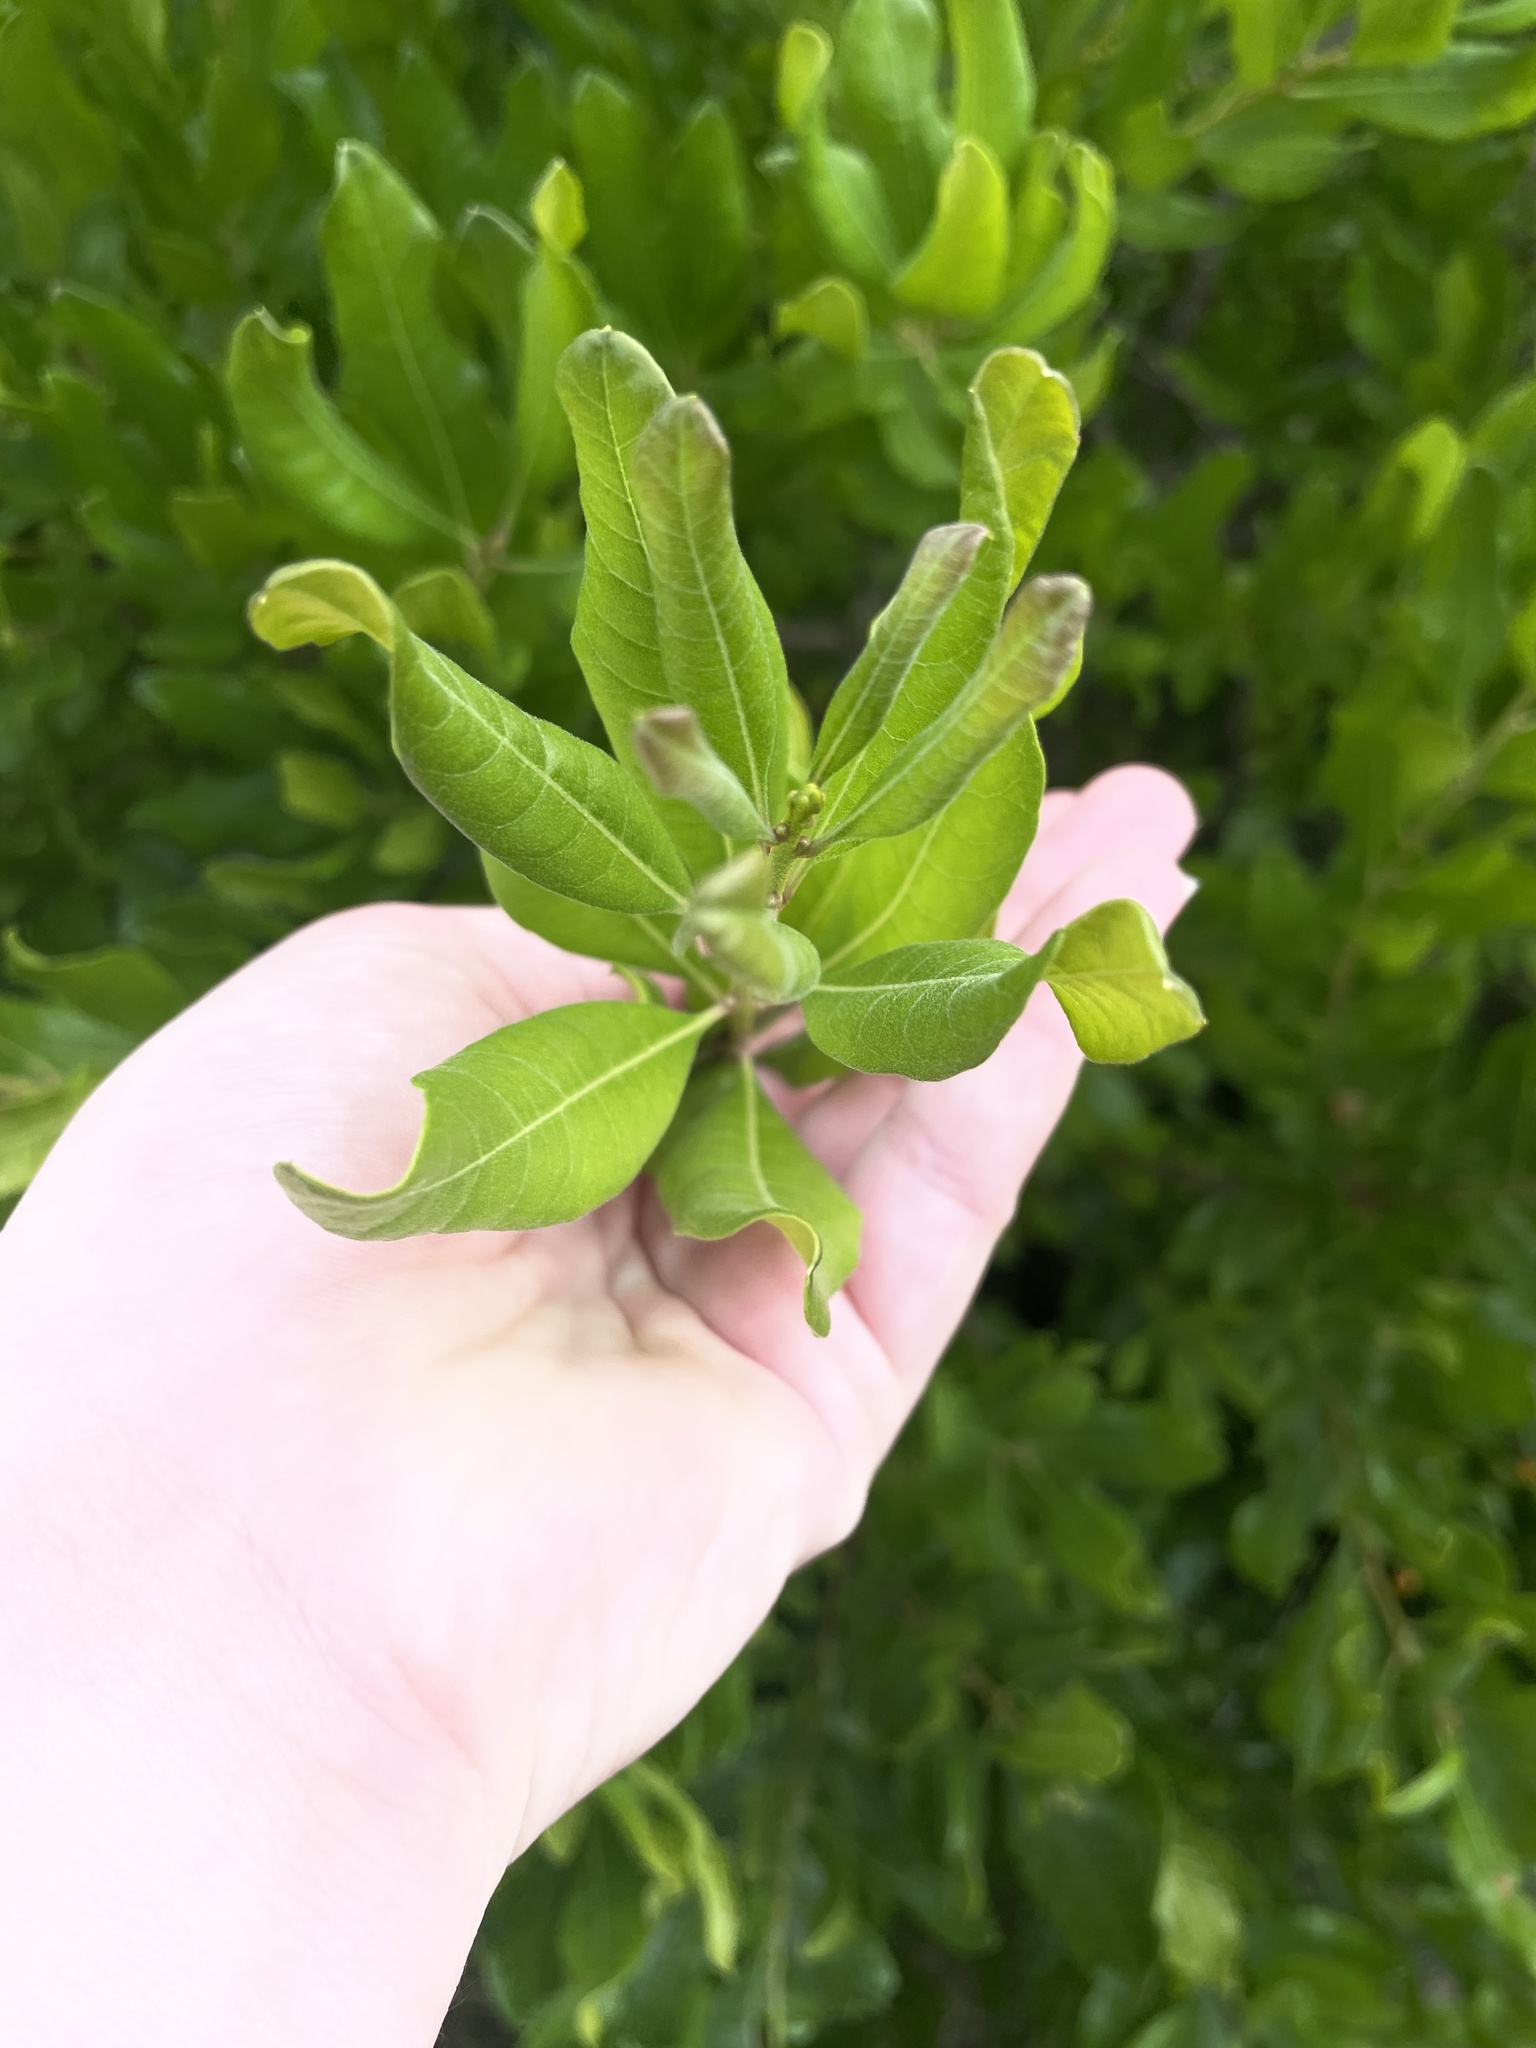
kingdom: Plantae
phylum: Tracheophyta
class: Magnoliopsida
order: Fagales
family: Myricaceae
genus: Morella
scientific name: Morella pensylvanica
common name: Northern bayberry
